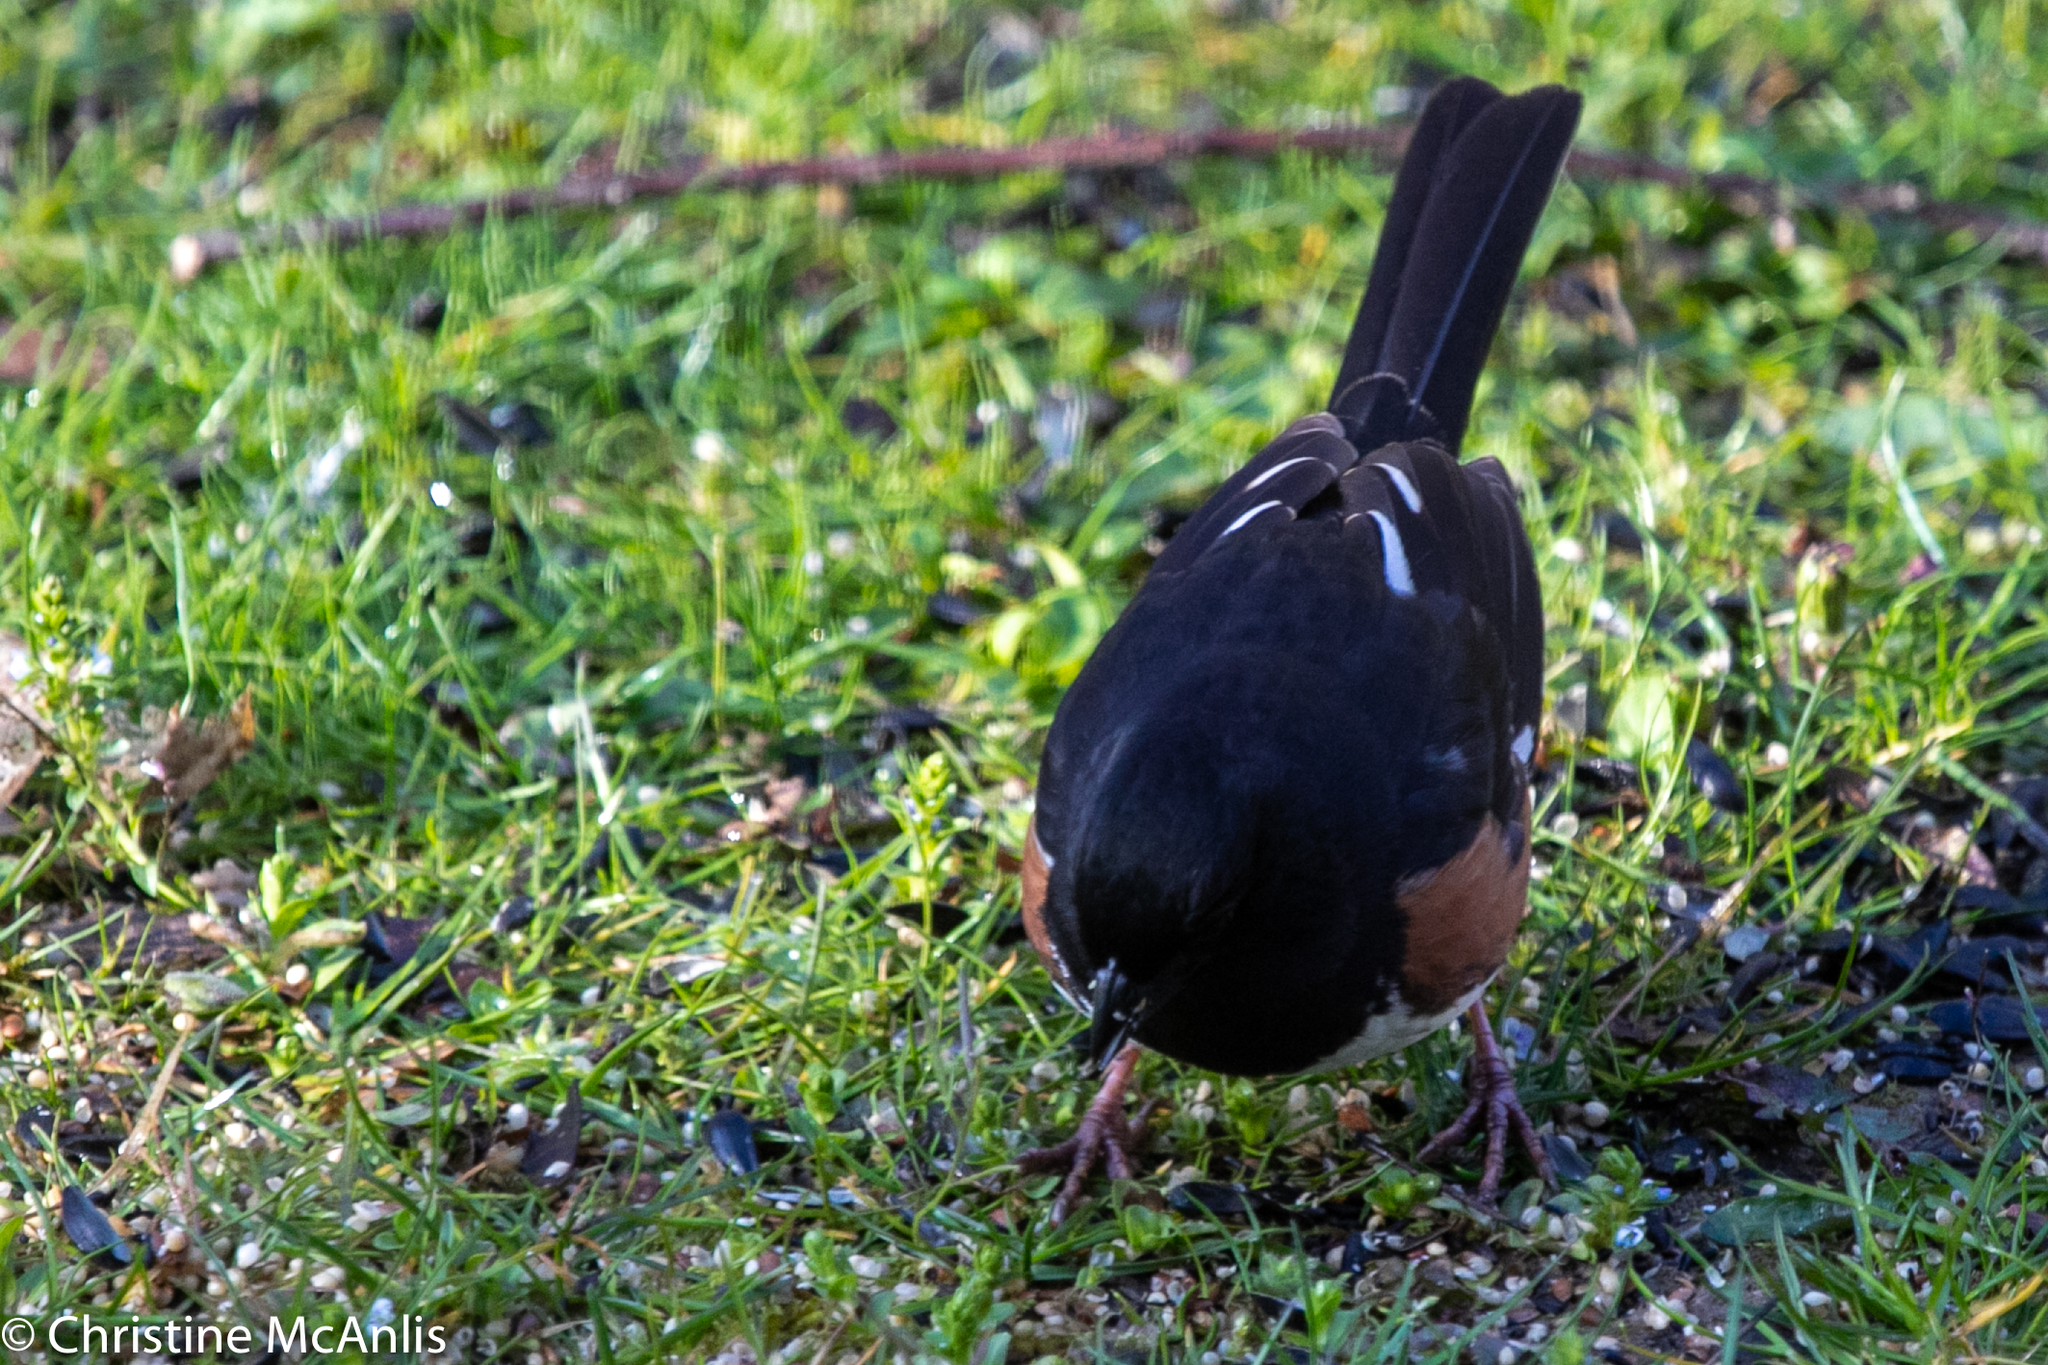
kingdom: Animalia
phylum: Chordata
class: Aves
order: Passeriformes
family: Passerellidae
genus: Pipilo
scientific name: Pipilo erythrophthalmus
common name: Eastern towhee
